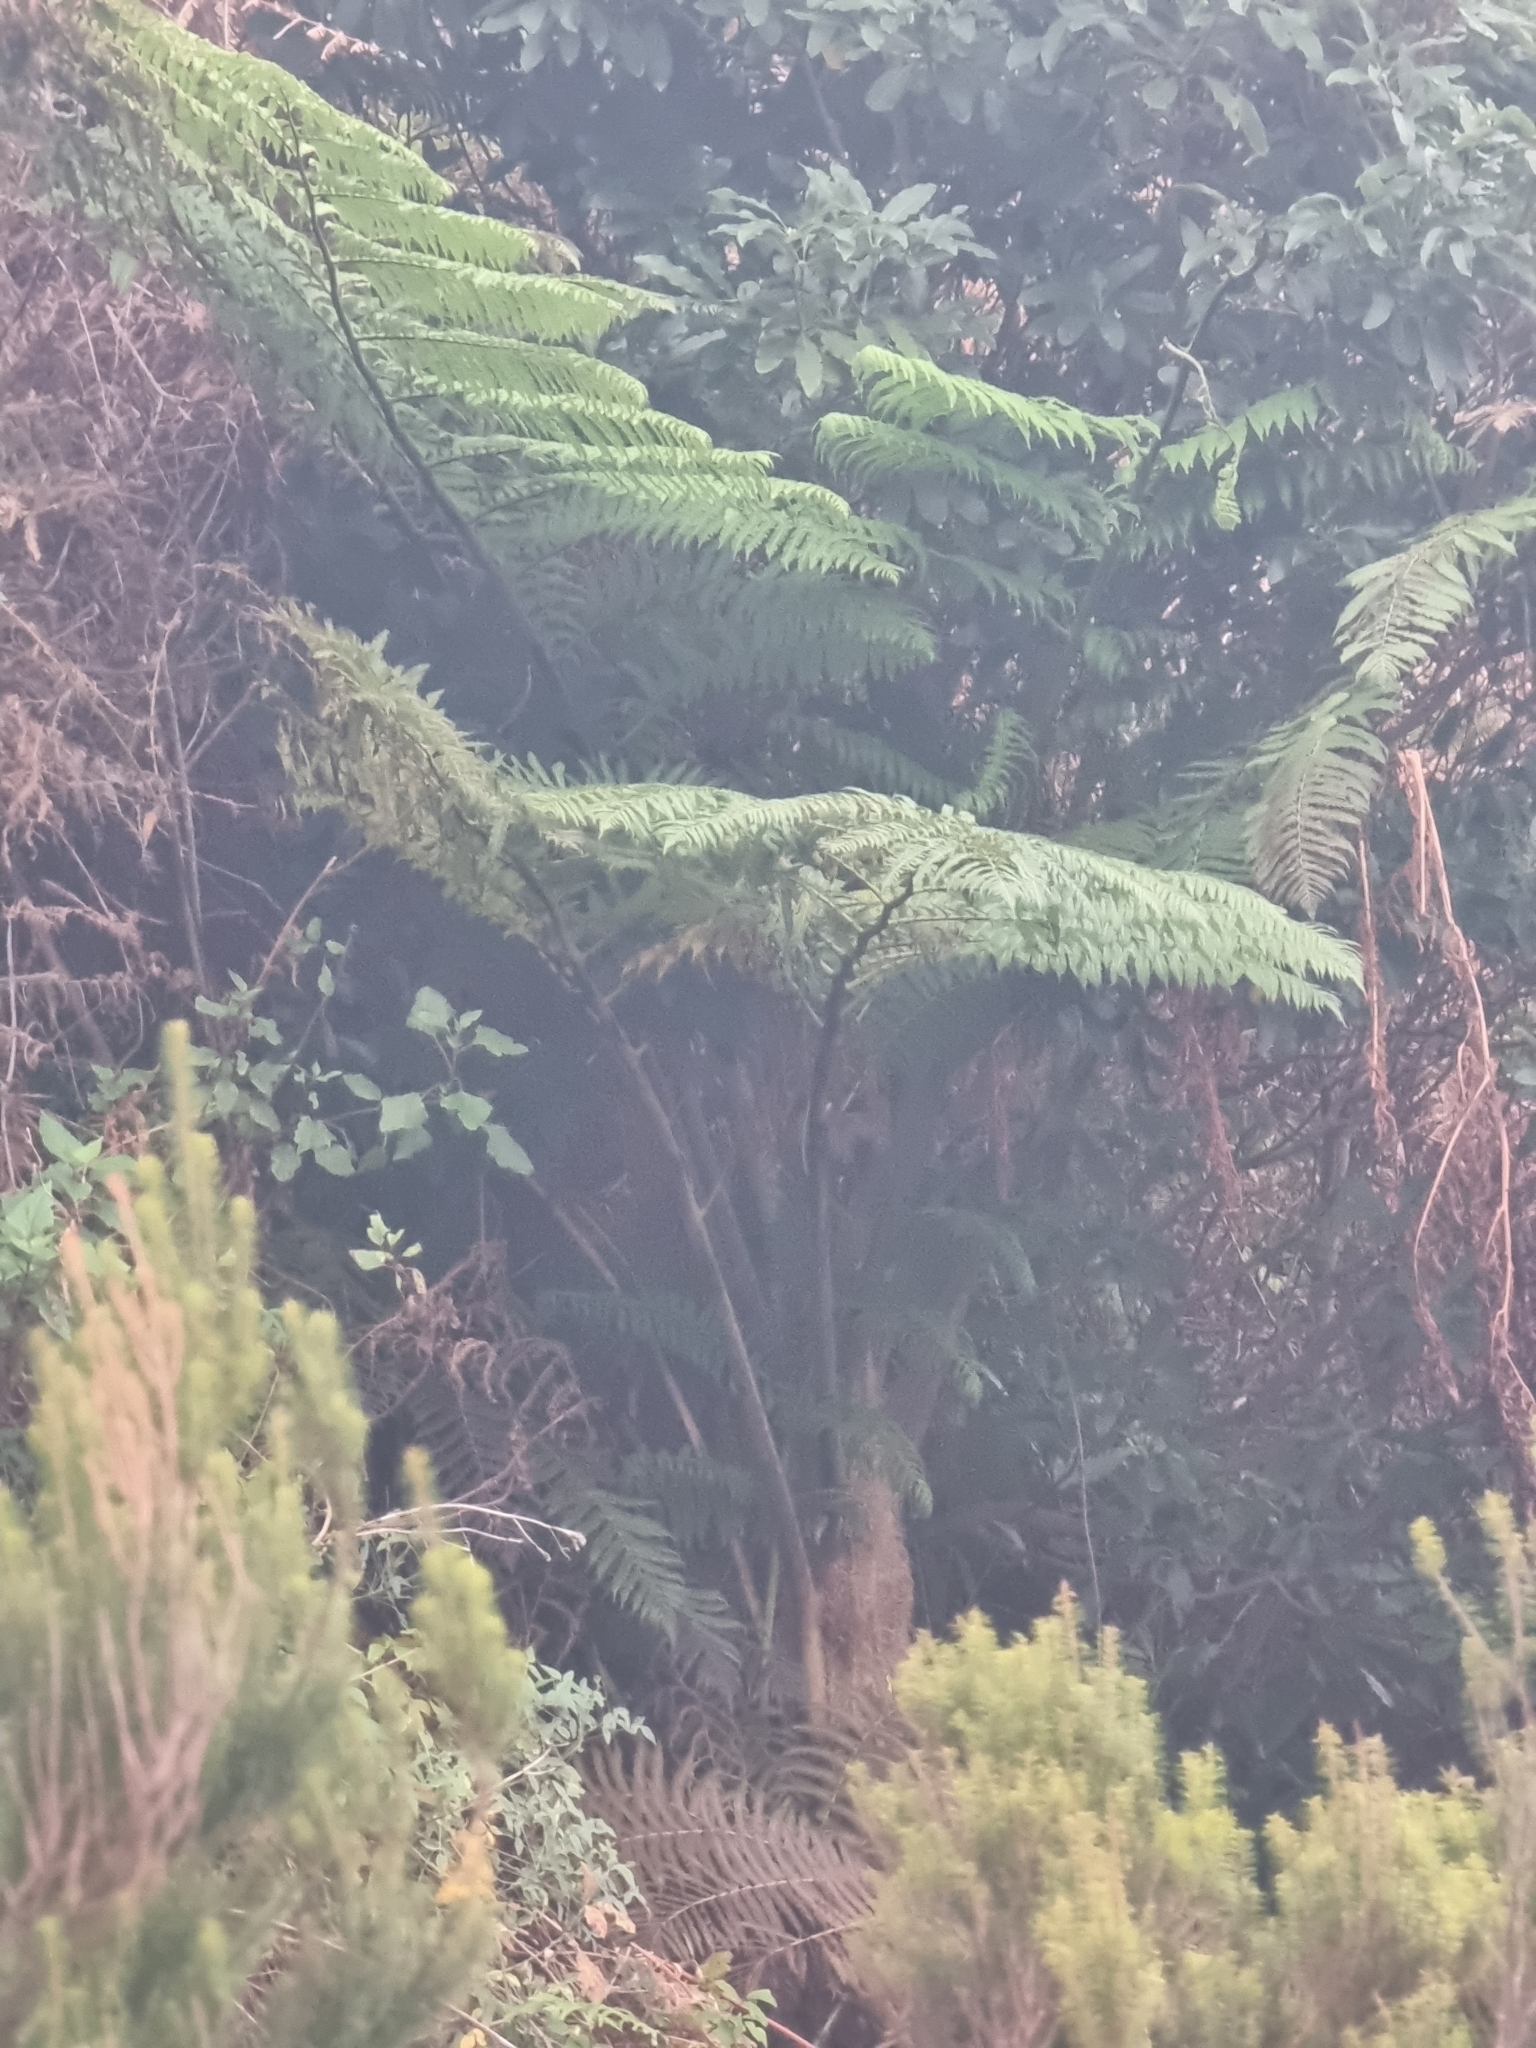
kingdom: Plantae
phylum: Tracheophyta
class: Polypodiopsida
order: Cyatheales
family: Cyatheaceae
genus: Sphaeropteris
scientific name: Sphaeropteris cooperi
